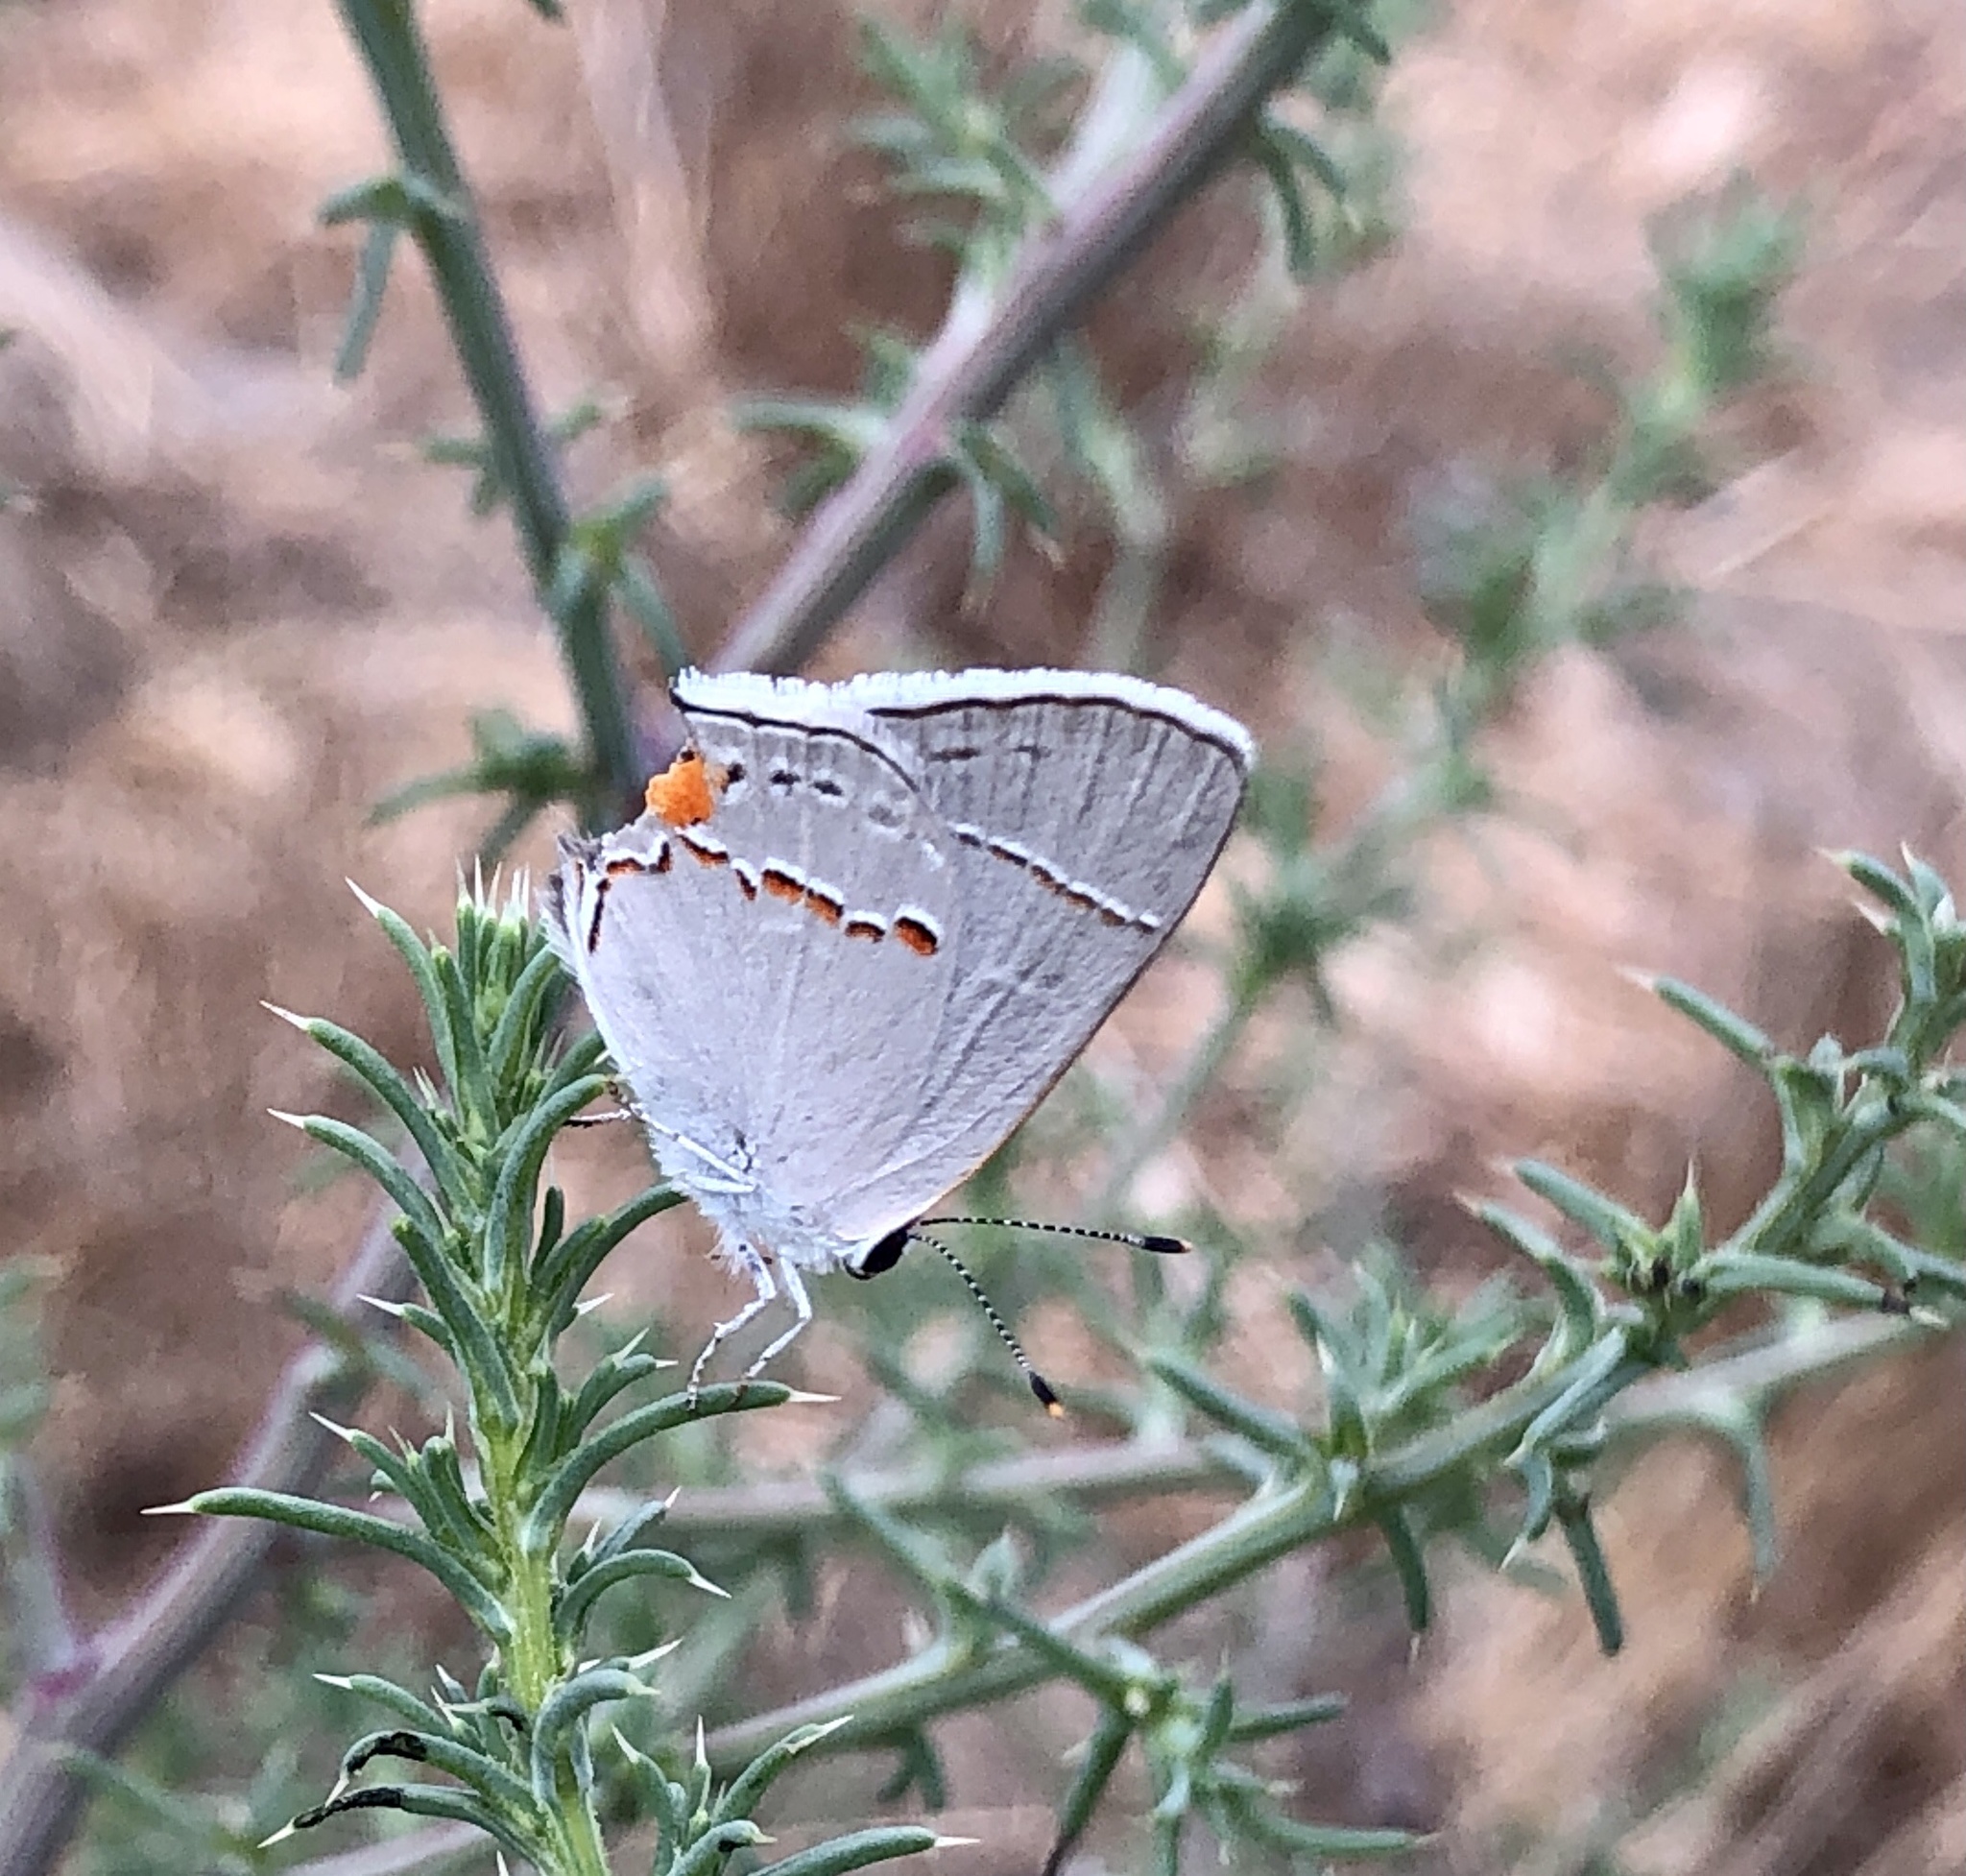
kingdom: Animalia
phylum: Arthropoda
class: Insecta
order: Lepidoptera
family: Lycaenidae
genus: Strymon
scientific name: Strymon melinus
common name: Gray hairstreak
